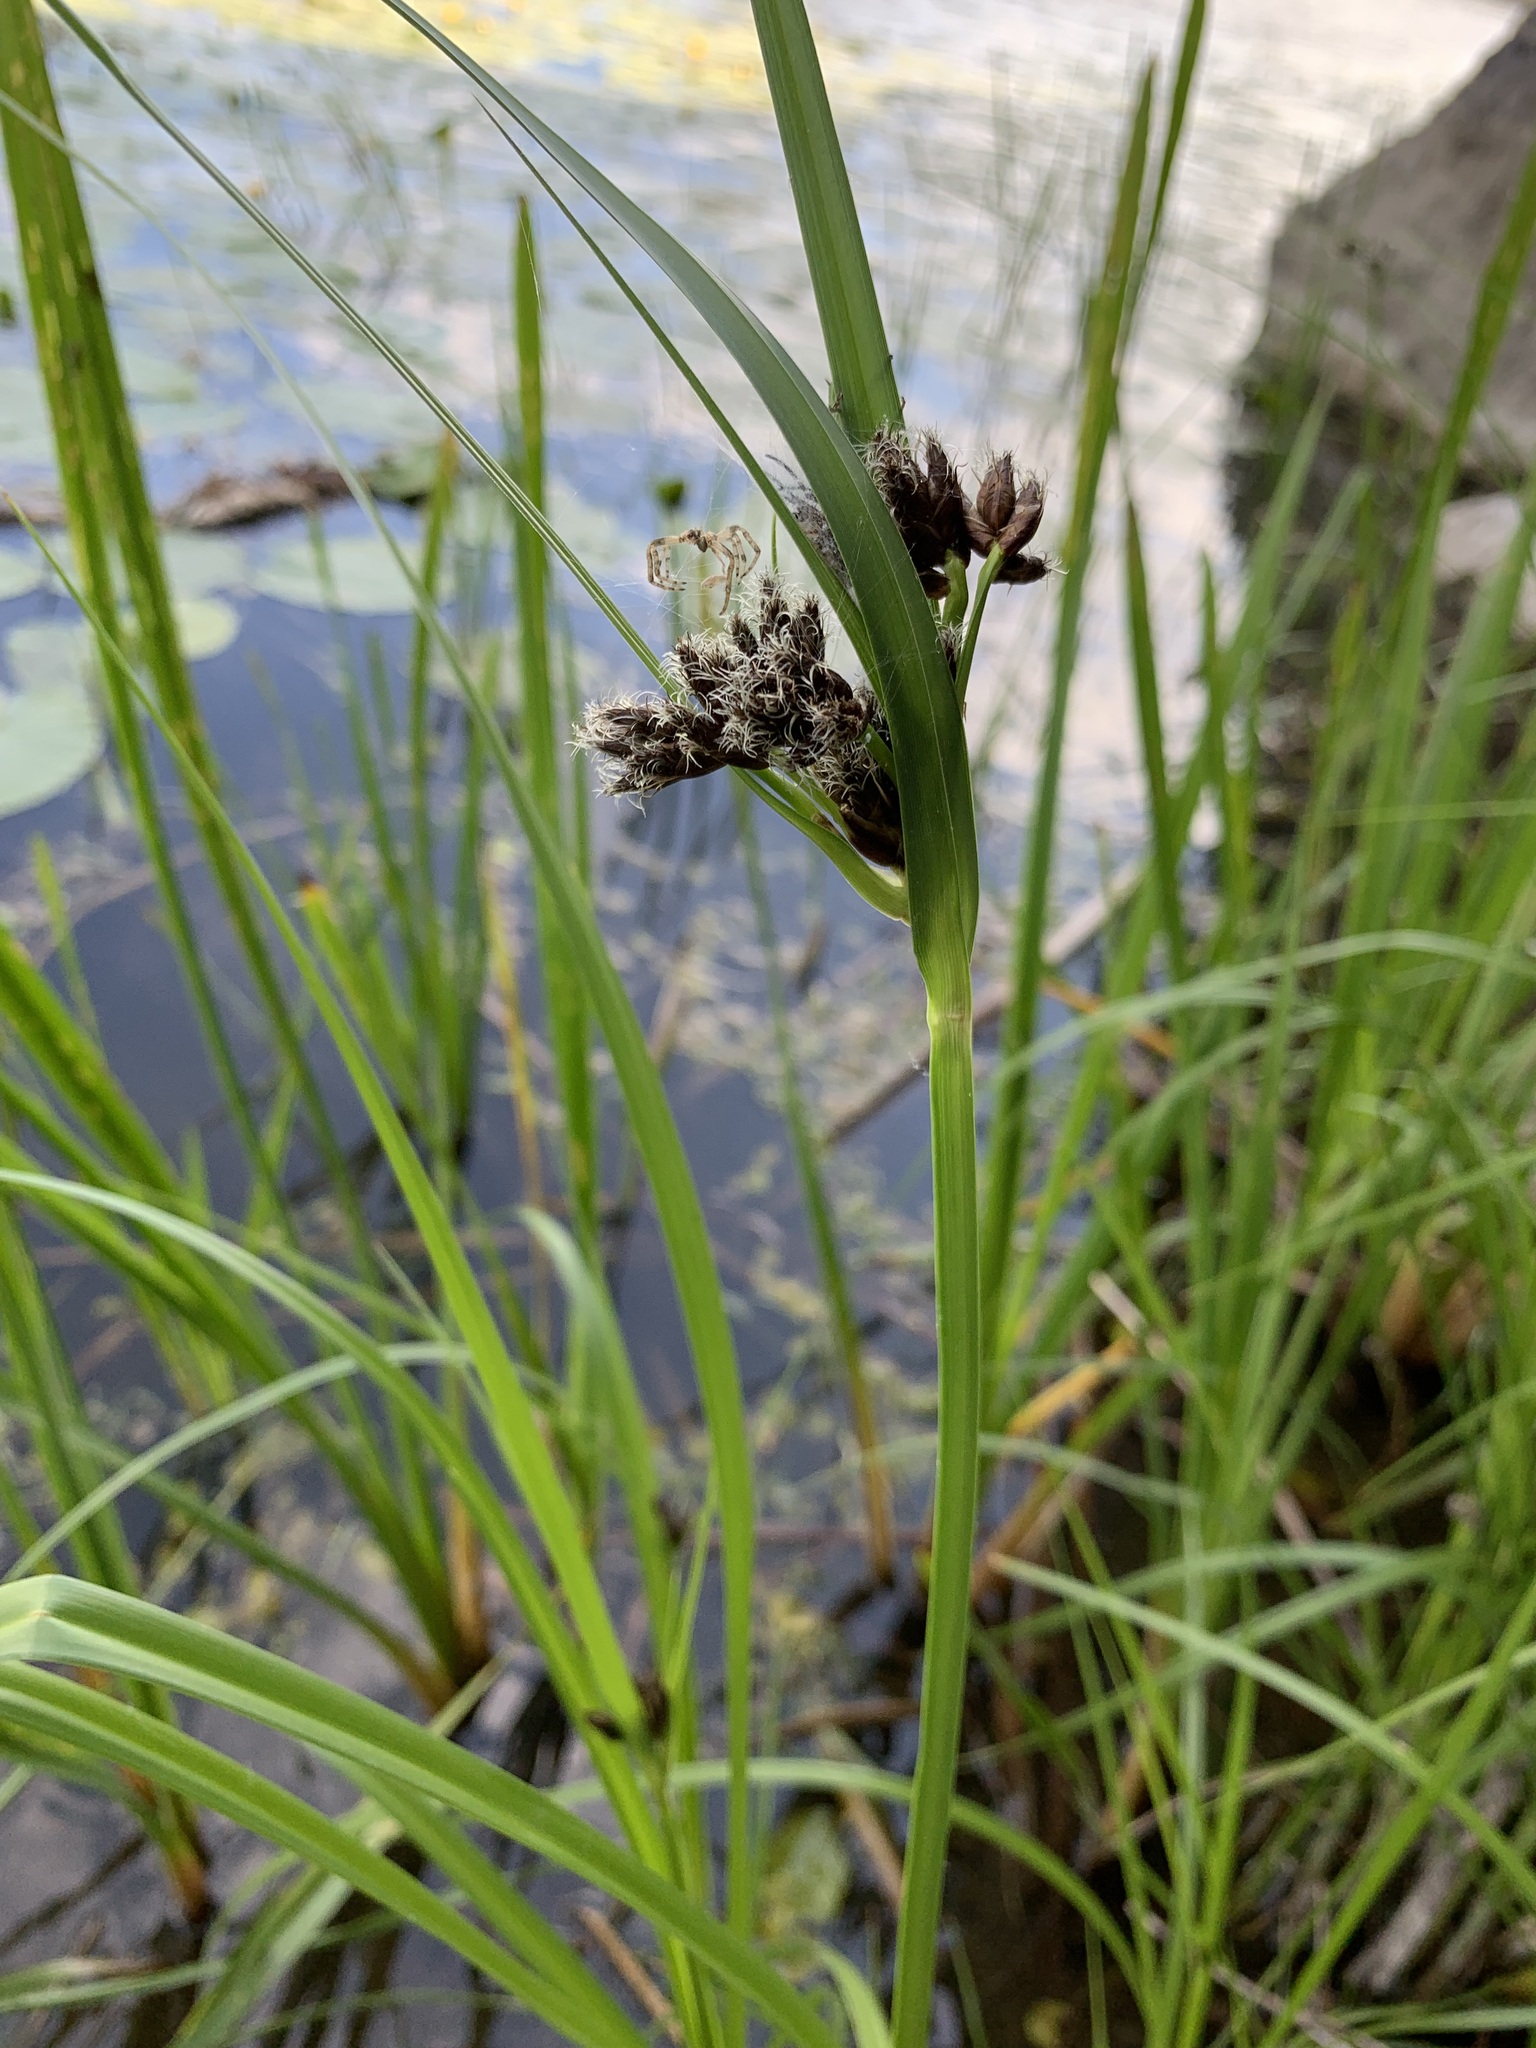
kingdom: Plantae
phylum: Tracheophyta
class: Liliopsida
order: Poales
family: Cyperaceae
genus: Bolboschoenus
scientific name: Bolboschoenus yagara
